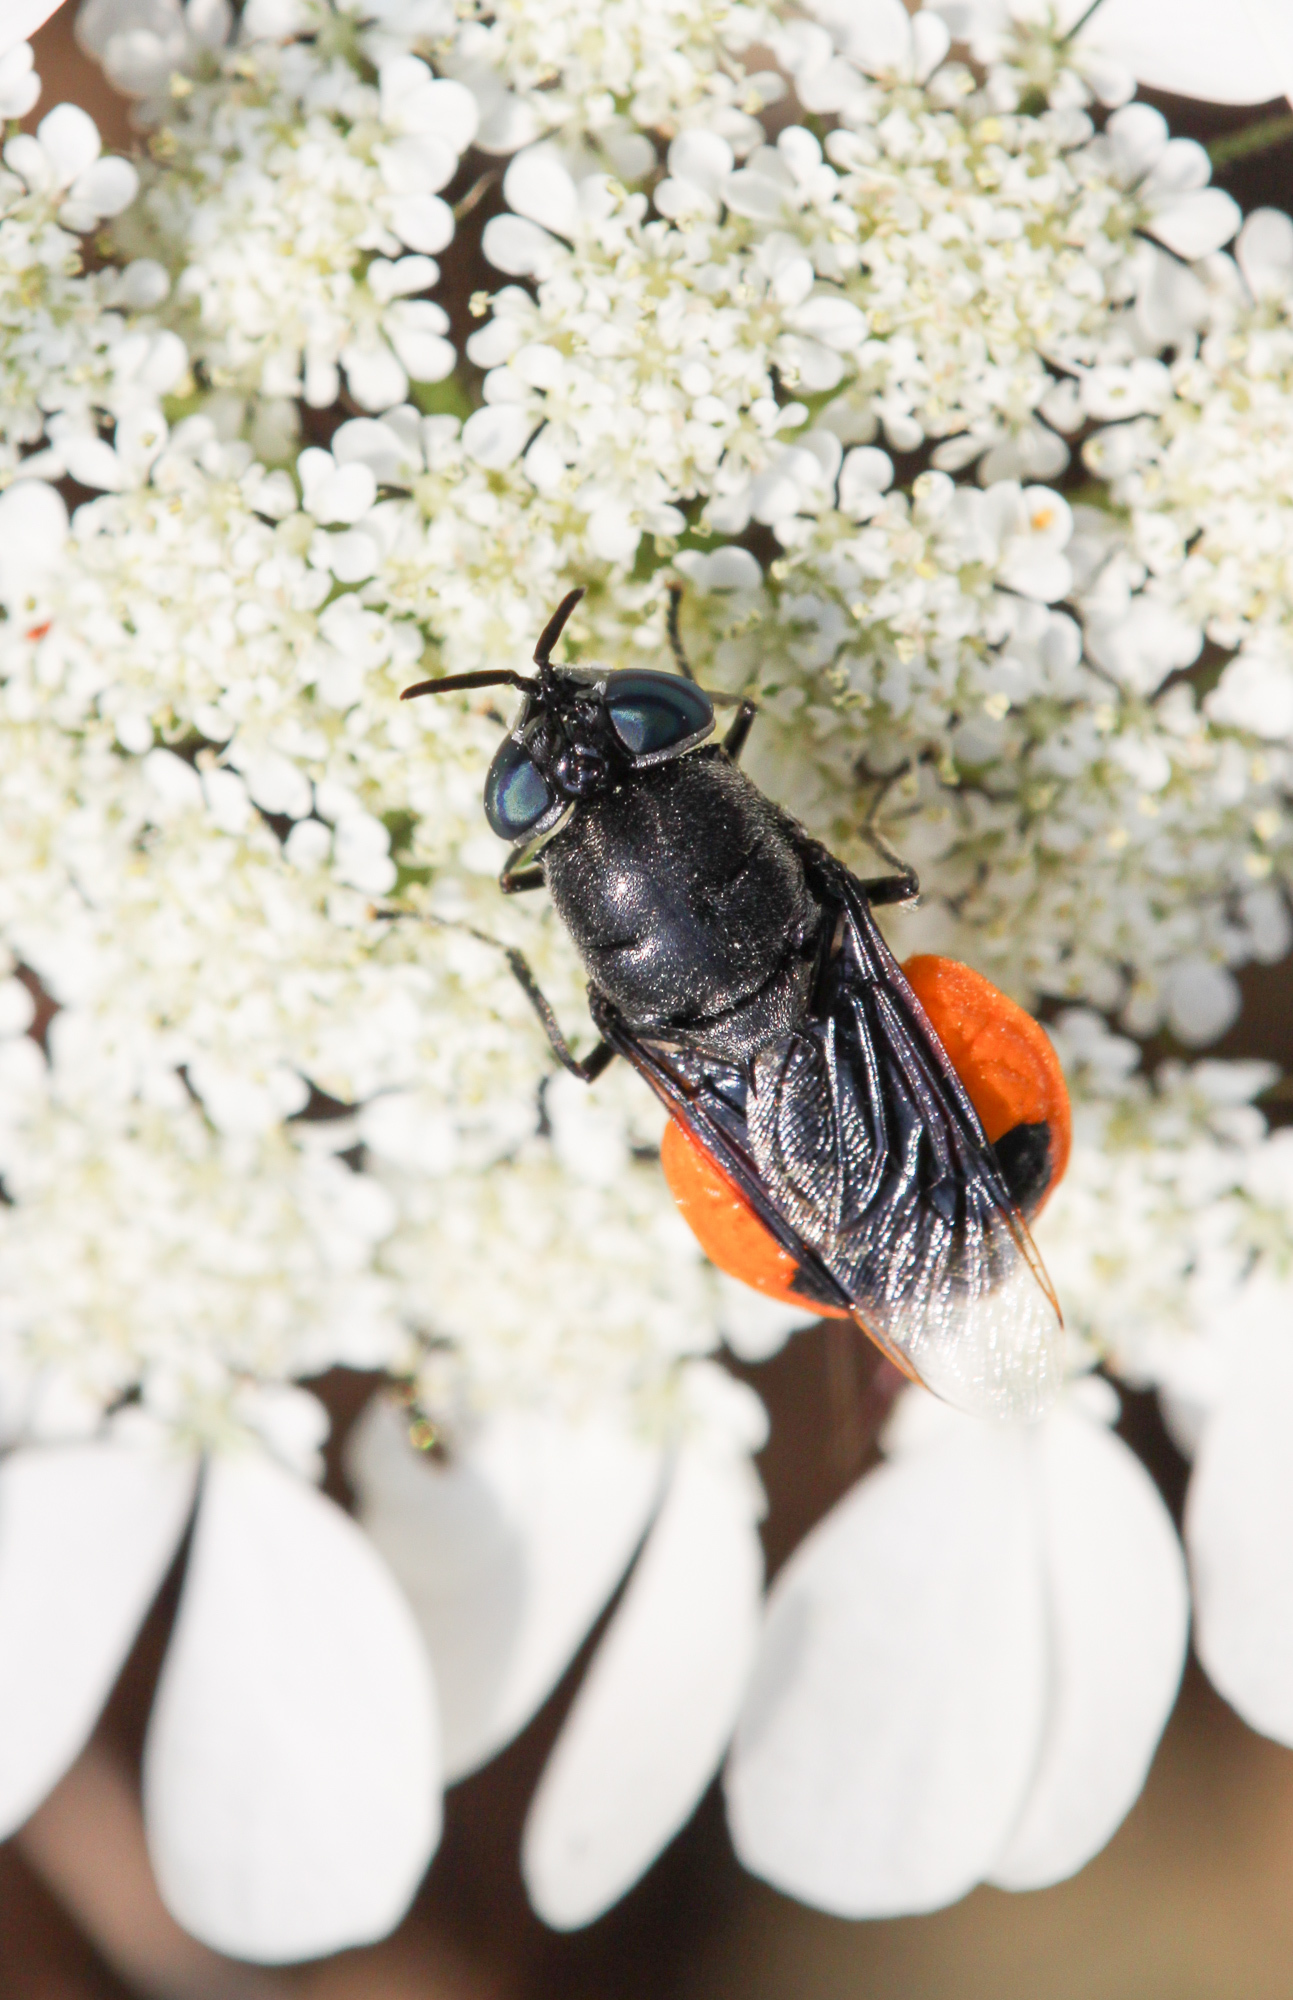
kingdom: Animalia
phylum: Arthropoda
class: Insecta
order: Diptera
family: Stratiomyidae
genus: Odontomyia
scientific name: Odontomyia flavissima
